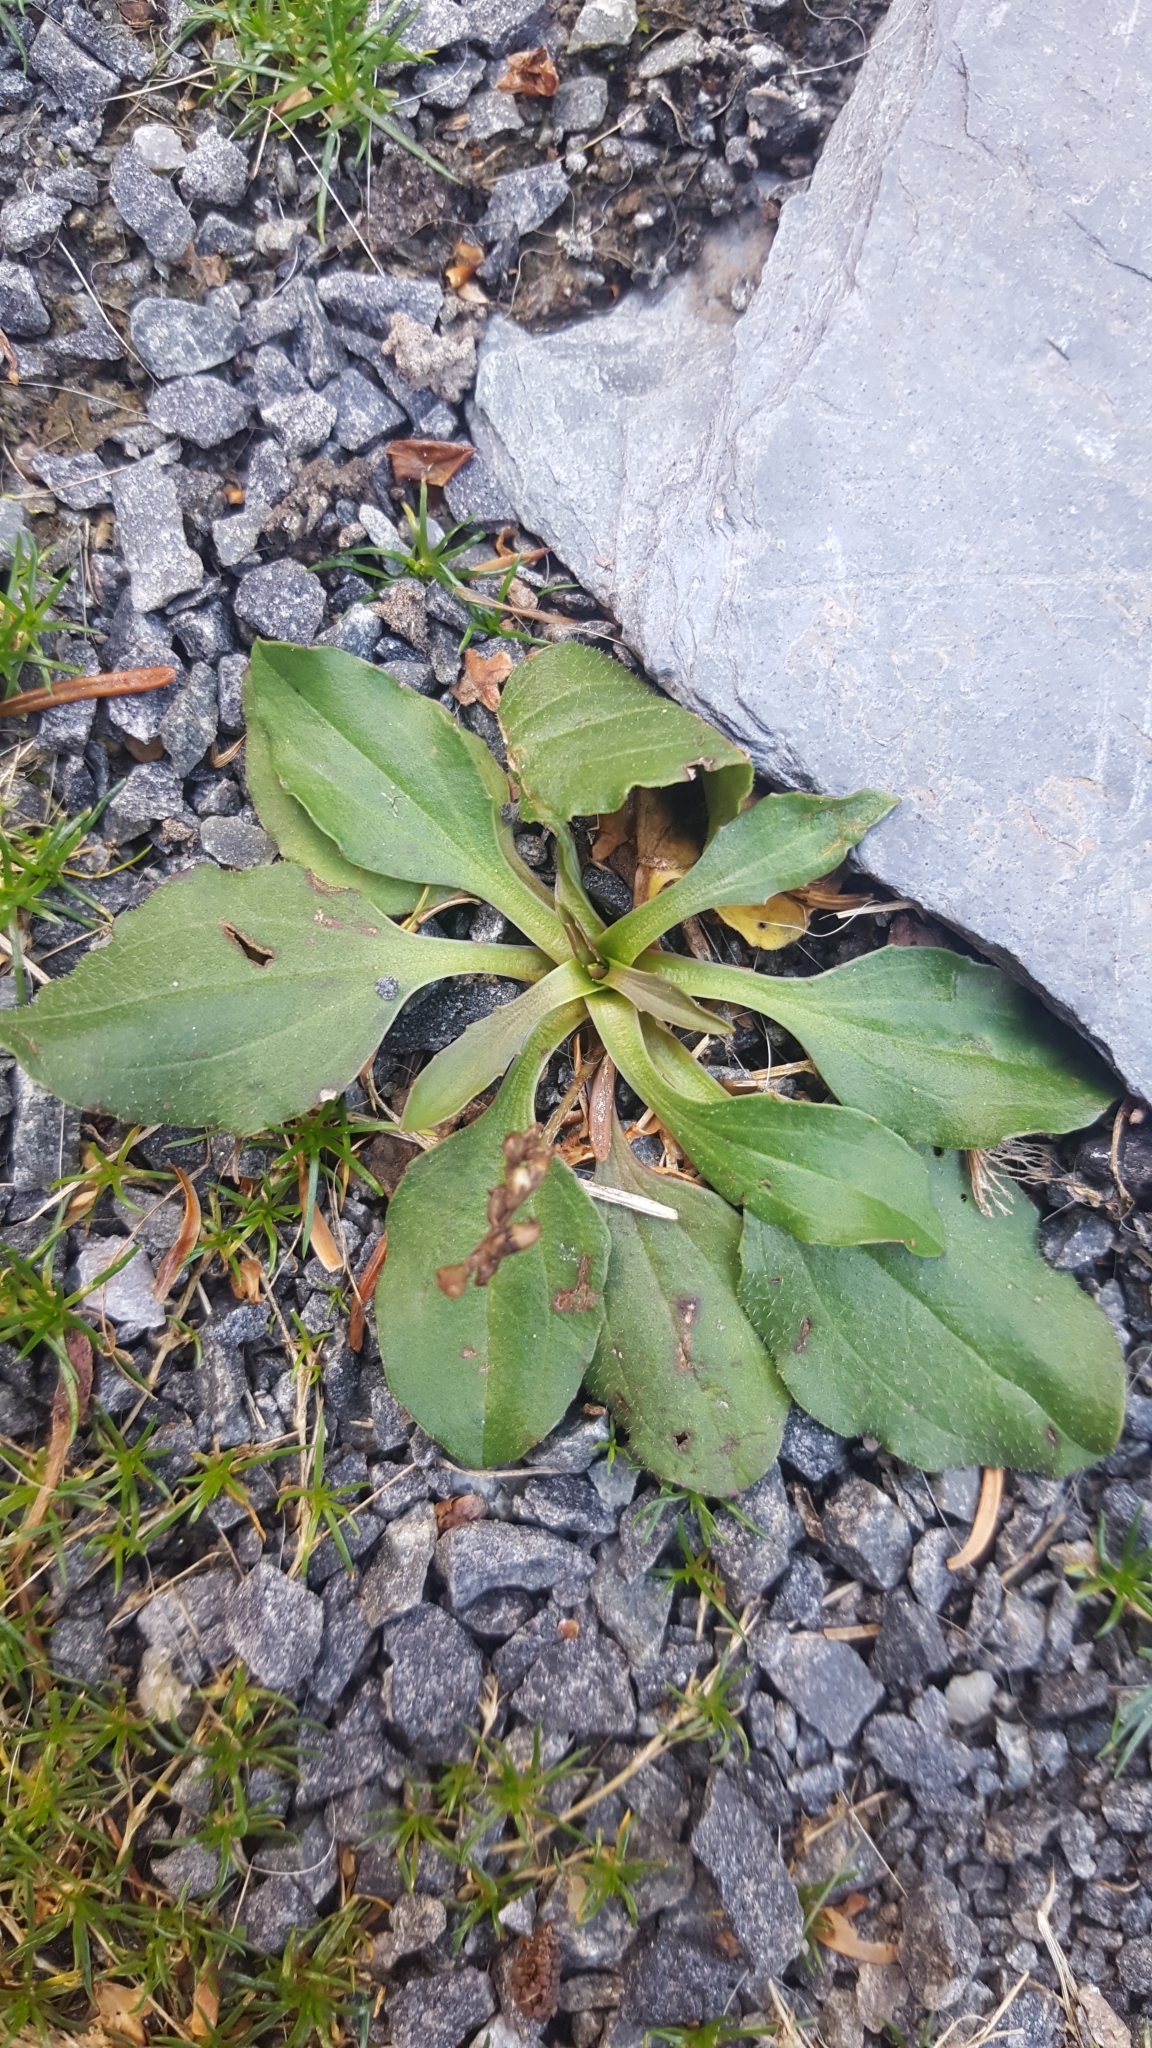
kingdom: Plantae
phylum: Tracheophyta
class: Magnoliopsida
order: Lamiales
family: Plantaginaceae
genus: Plantago
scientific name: Plantago major
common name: Common plantain
